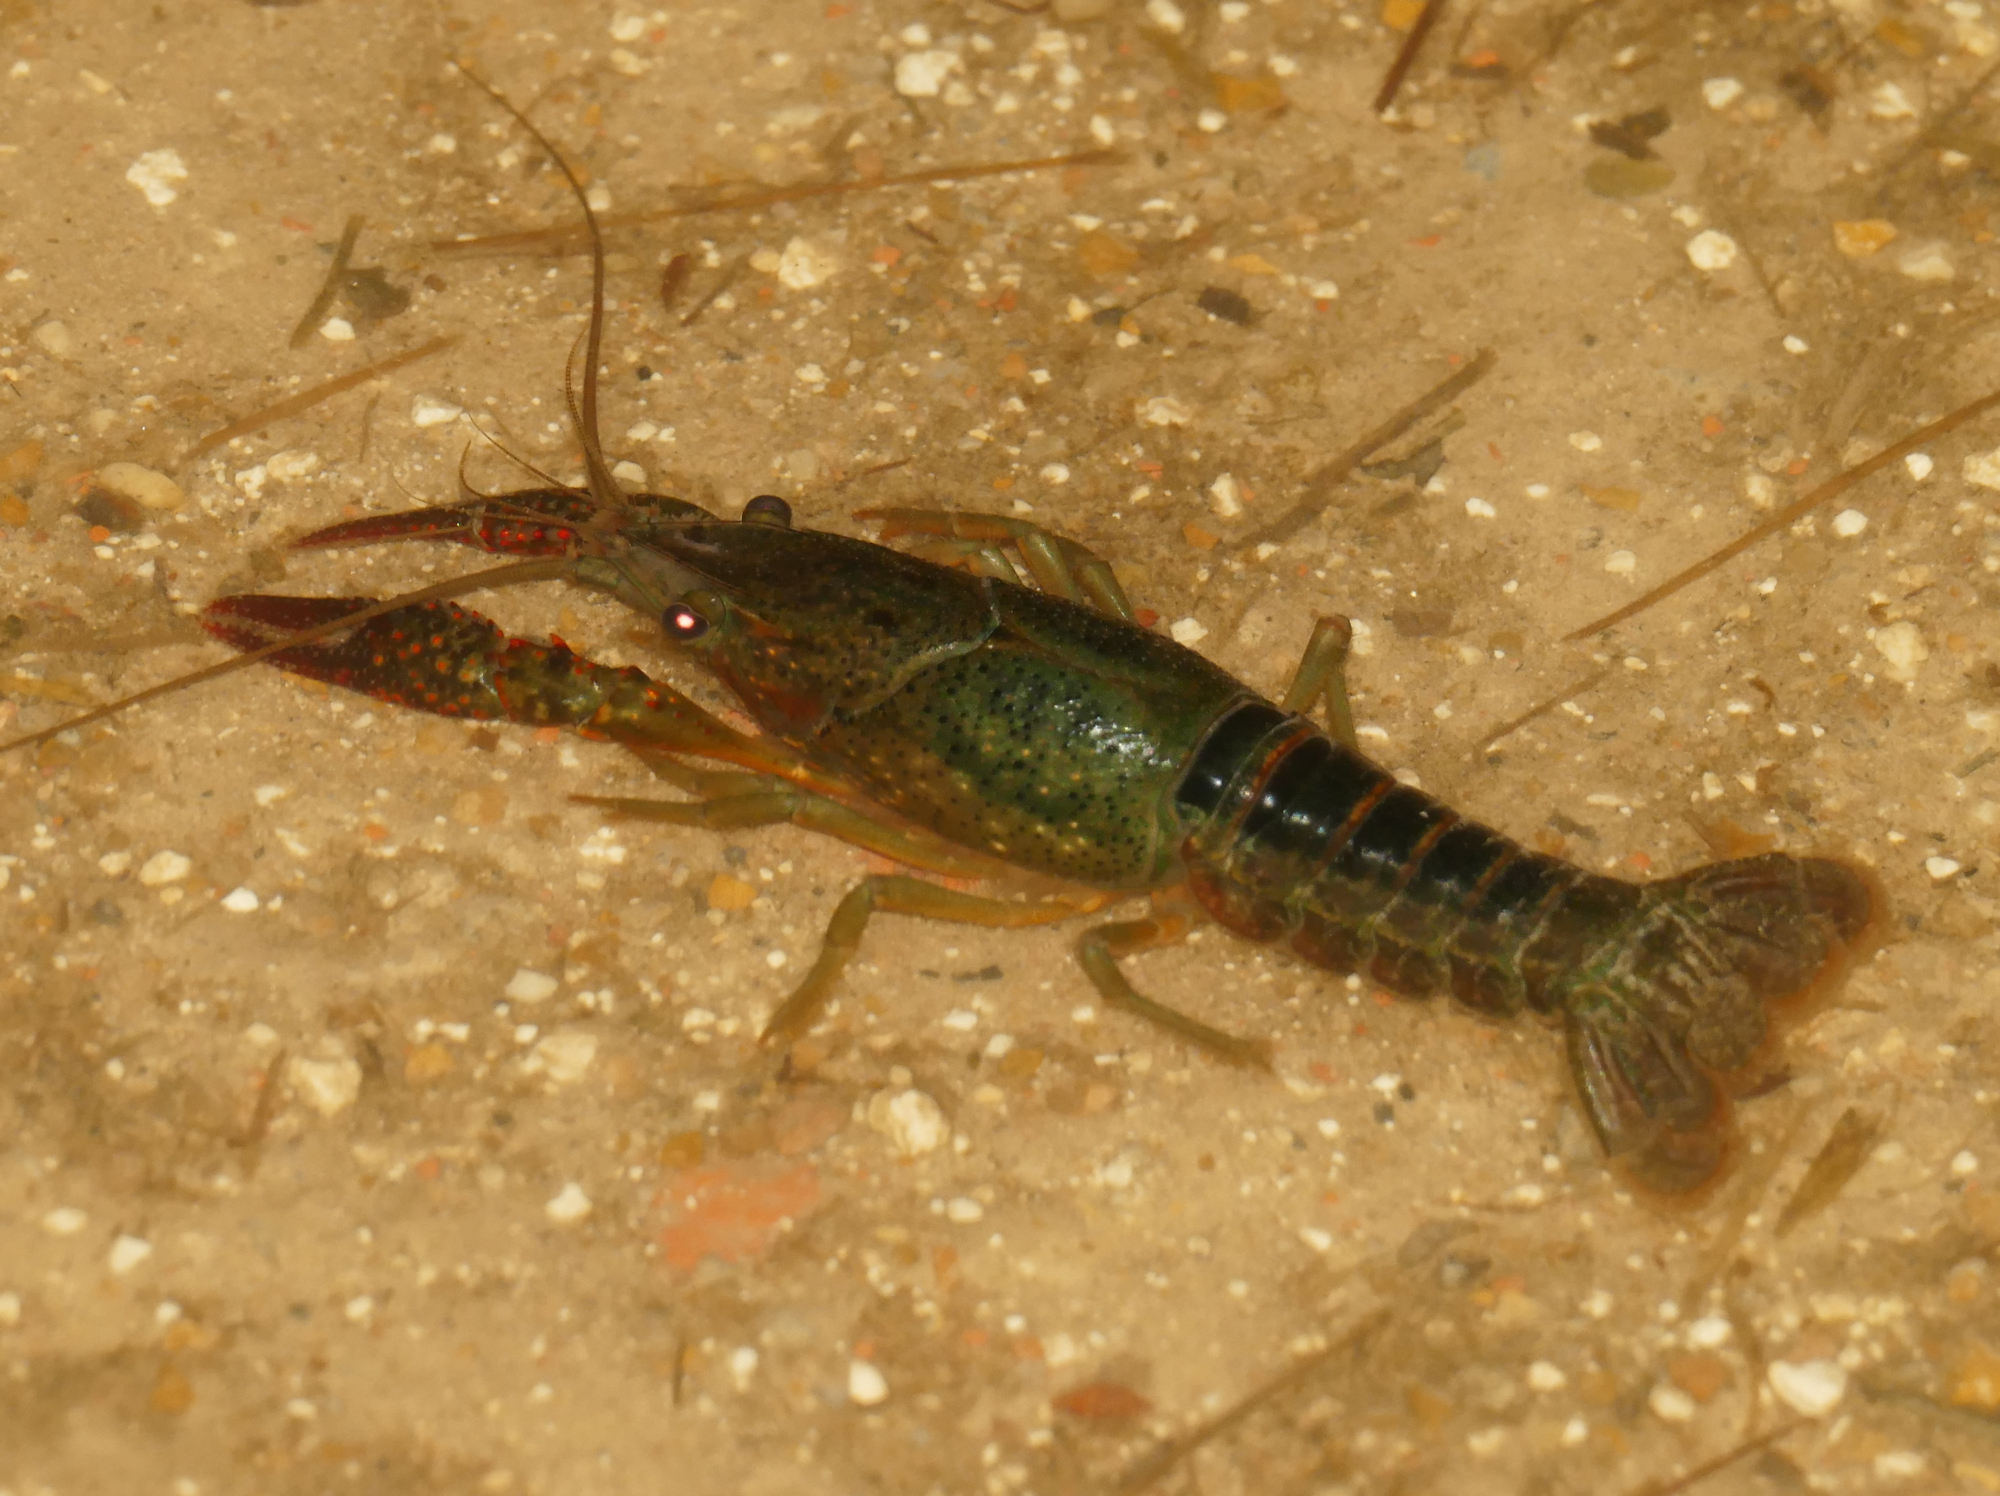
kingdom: Animalia
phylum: Arthropoda
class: Malacostraca
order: Decapoda
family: Cambaridae
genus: Procambarus
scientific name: Procambarus clarkii
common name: Red swamp crayfish
